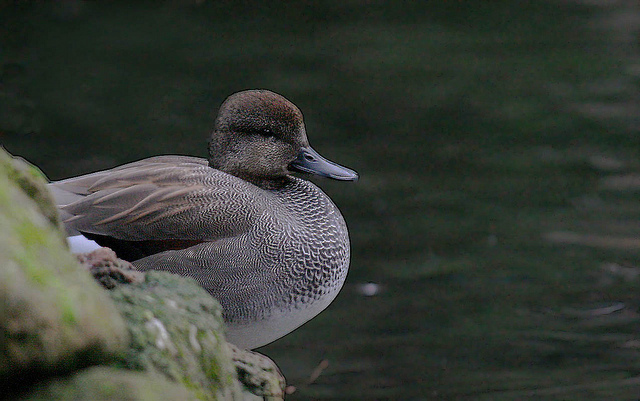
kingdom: Animalia
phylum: Chordata
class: Aves
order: Anseriformes
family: Anatidae
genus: Mareca
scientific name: Mareca strepera
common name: Gadwall
